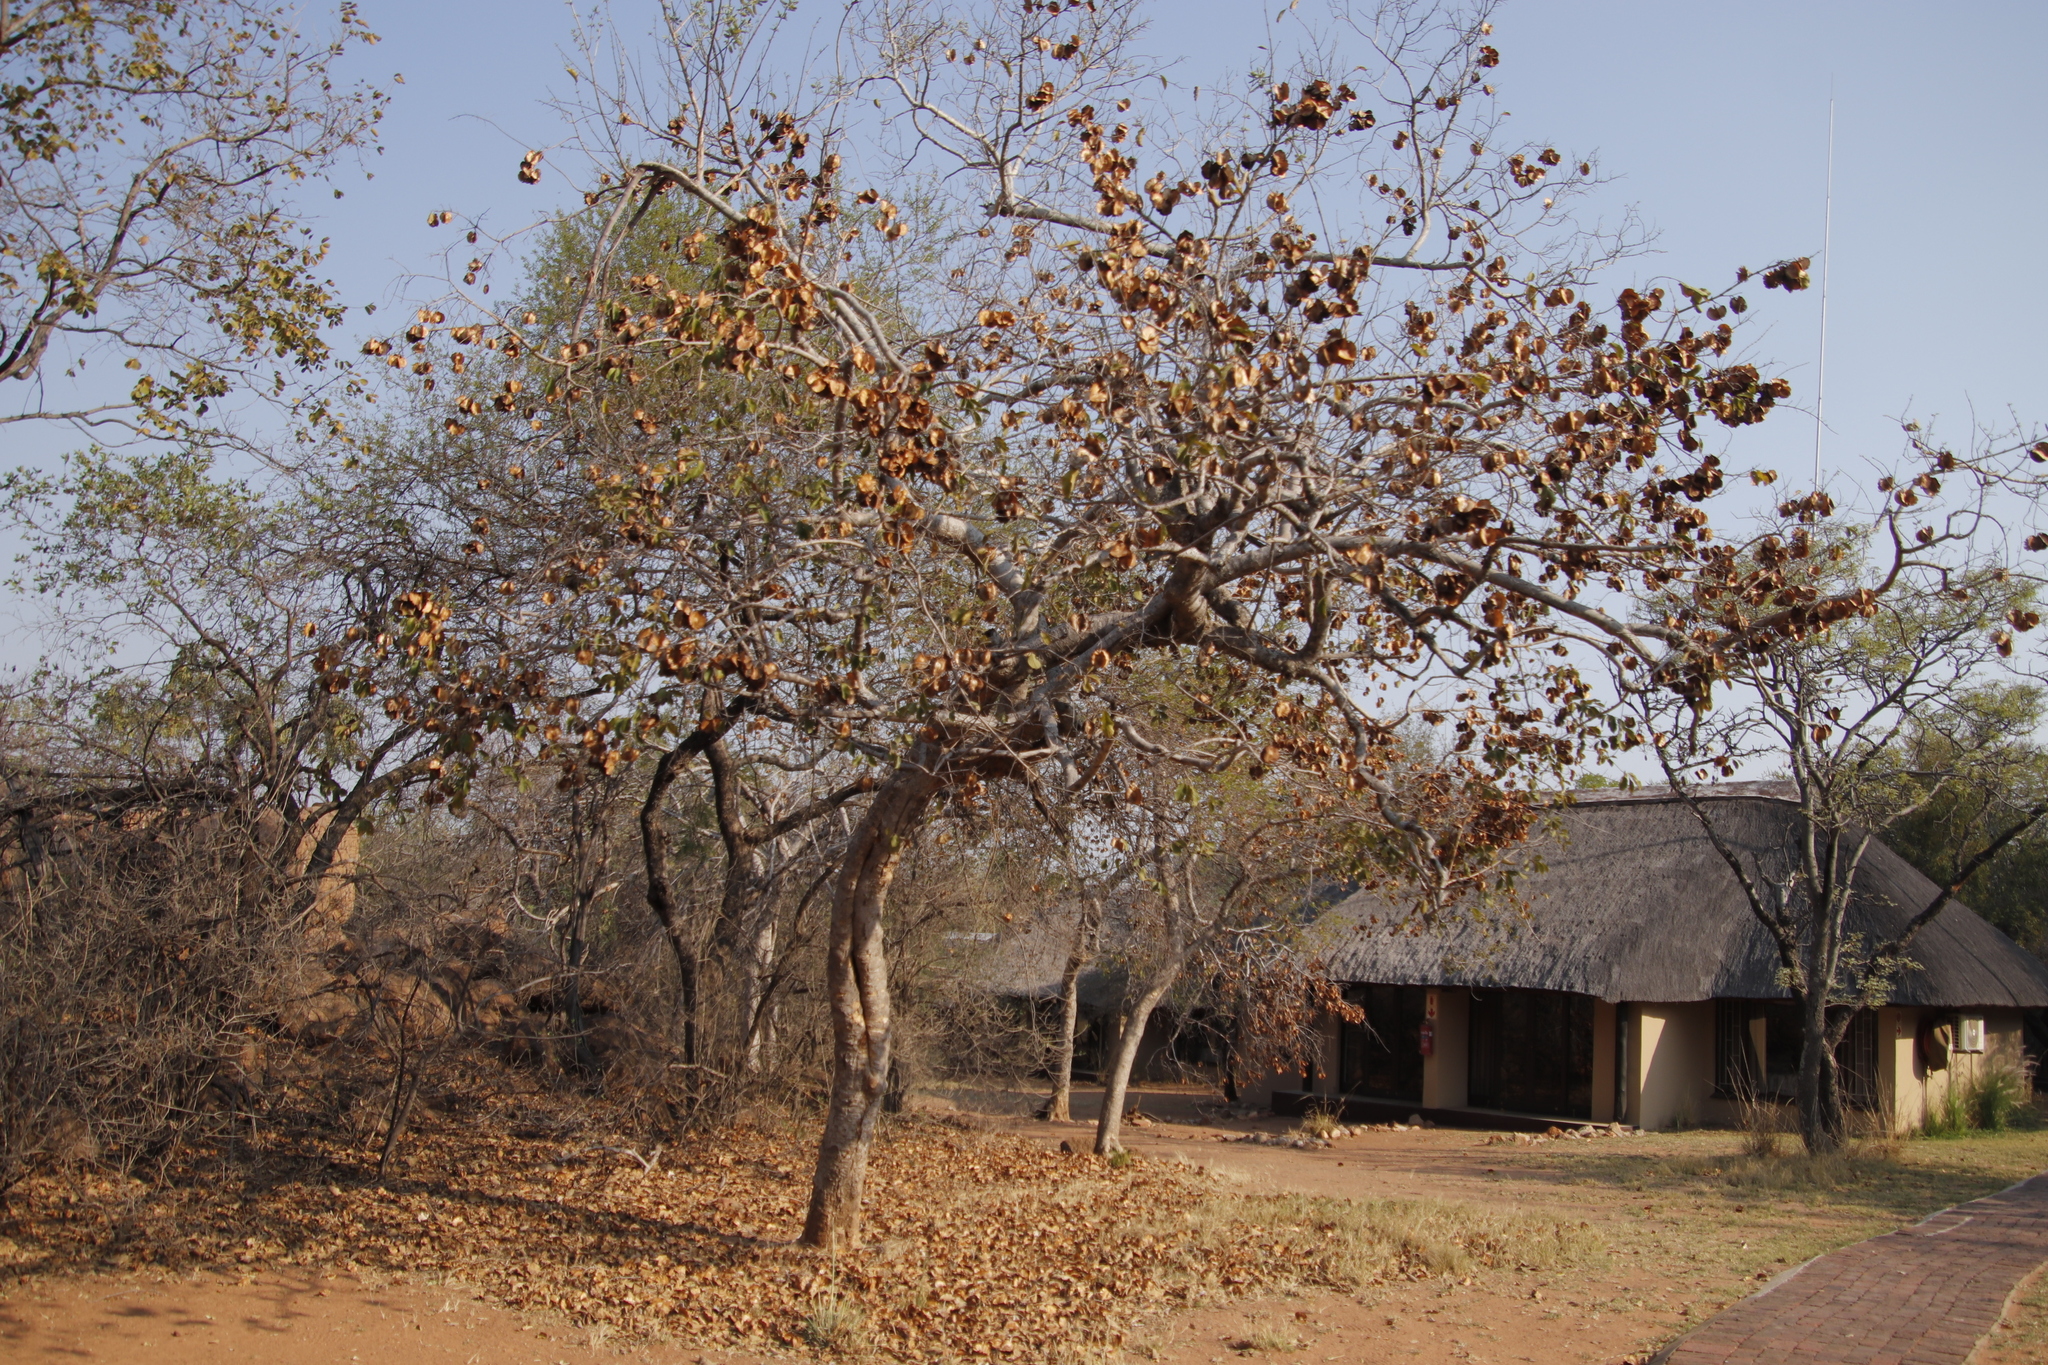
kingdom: Plantae
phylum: Tracheophyta
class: Magnoliopsida
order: Myrtales
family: Combretaceae
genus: Combretum
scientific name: Combretum zeyheri
